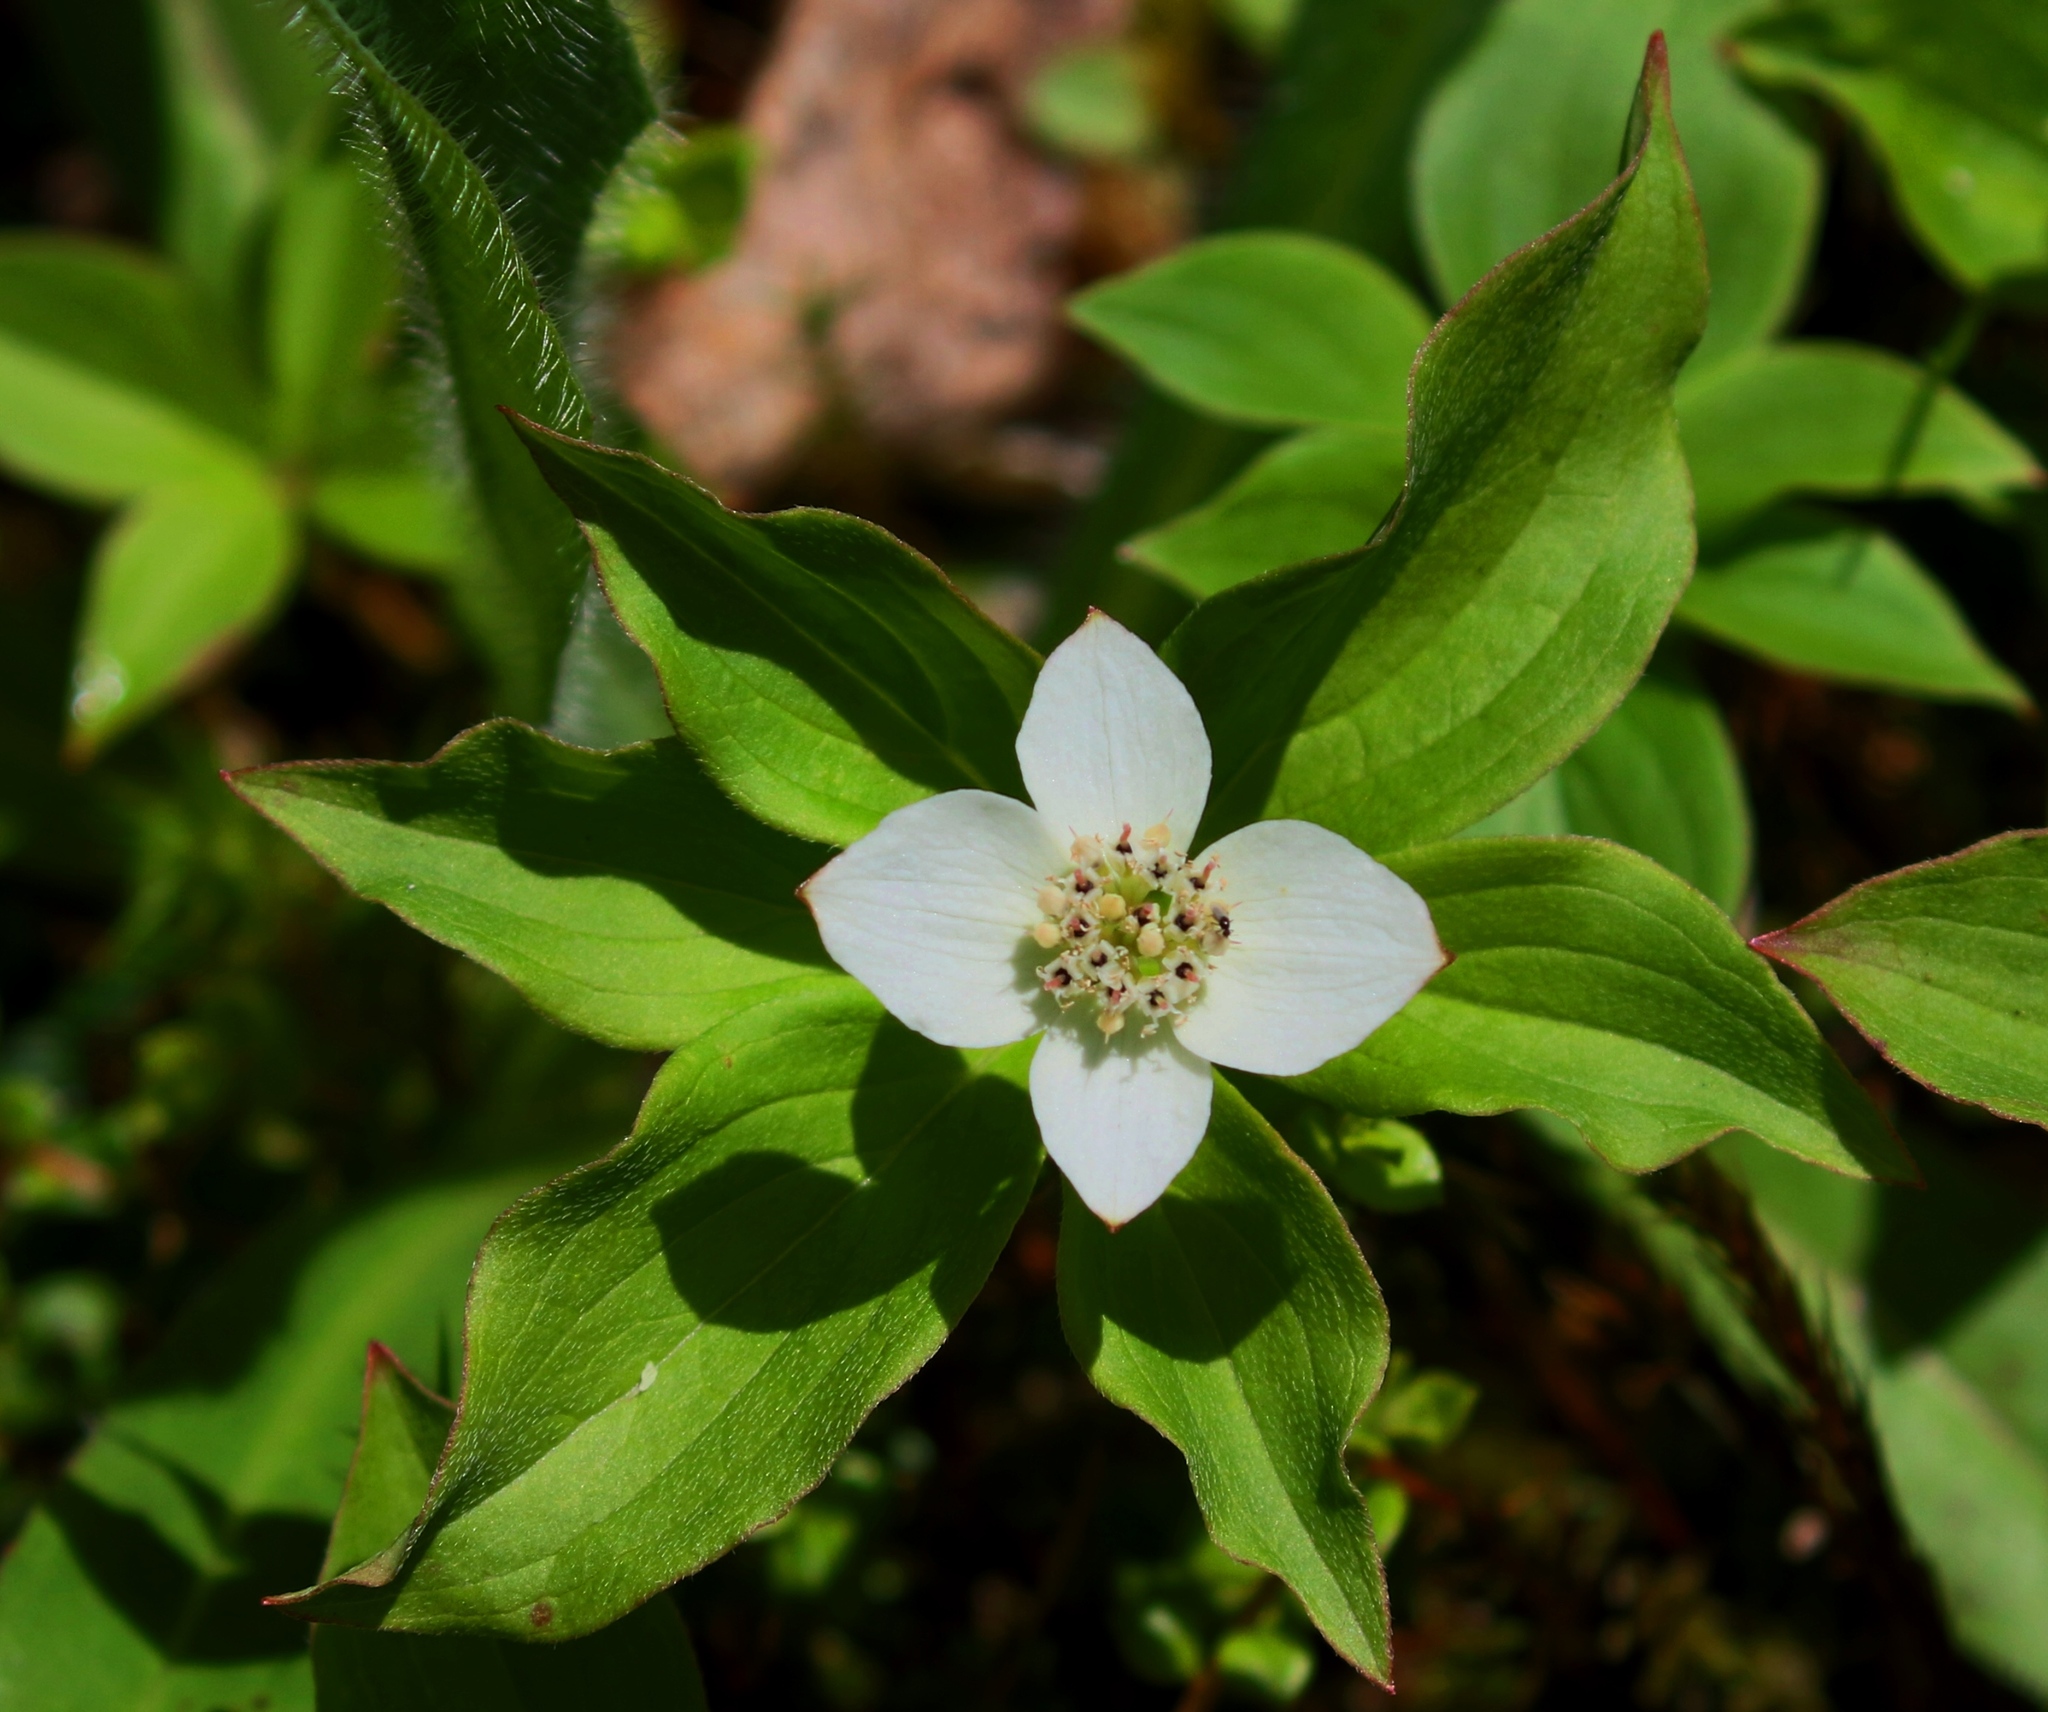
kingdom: Plantae
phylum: Tracheophyta
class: Magnoliopsida
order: Cornales
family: Cornaceae
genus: Cornus
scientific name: Cornus canadensis
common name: Creeping dogwood
